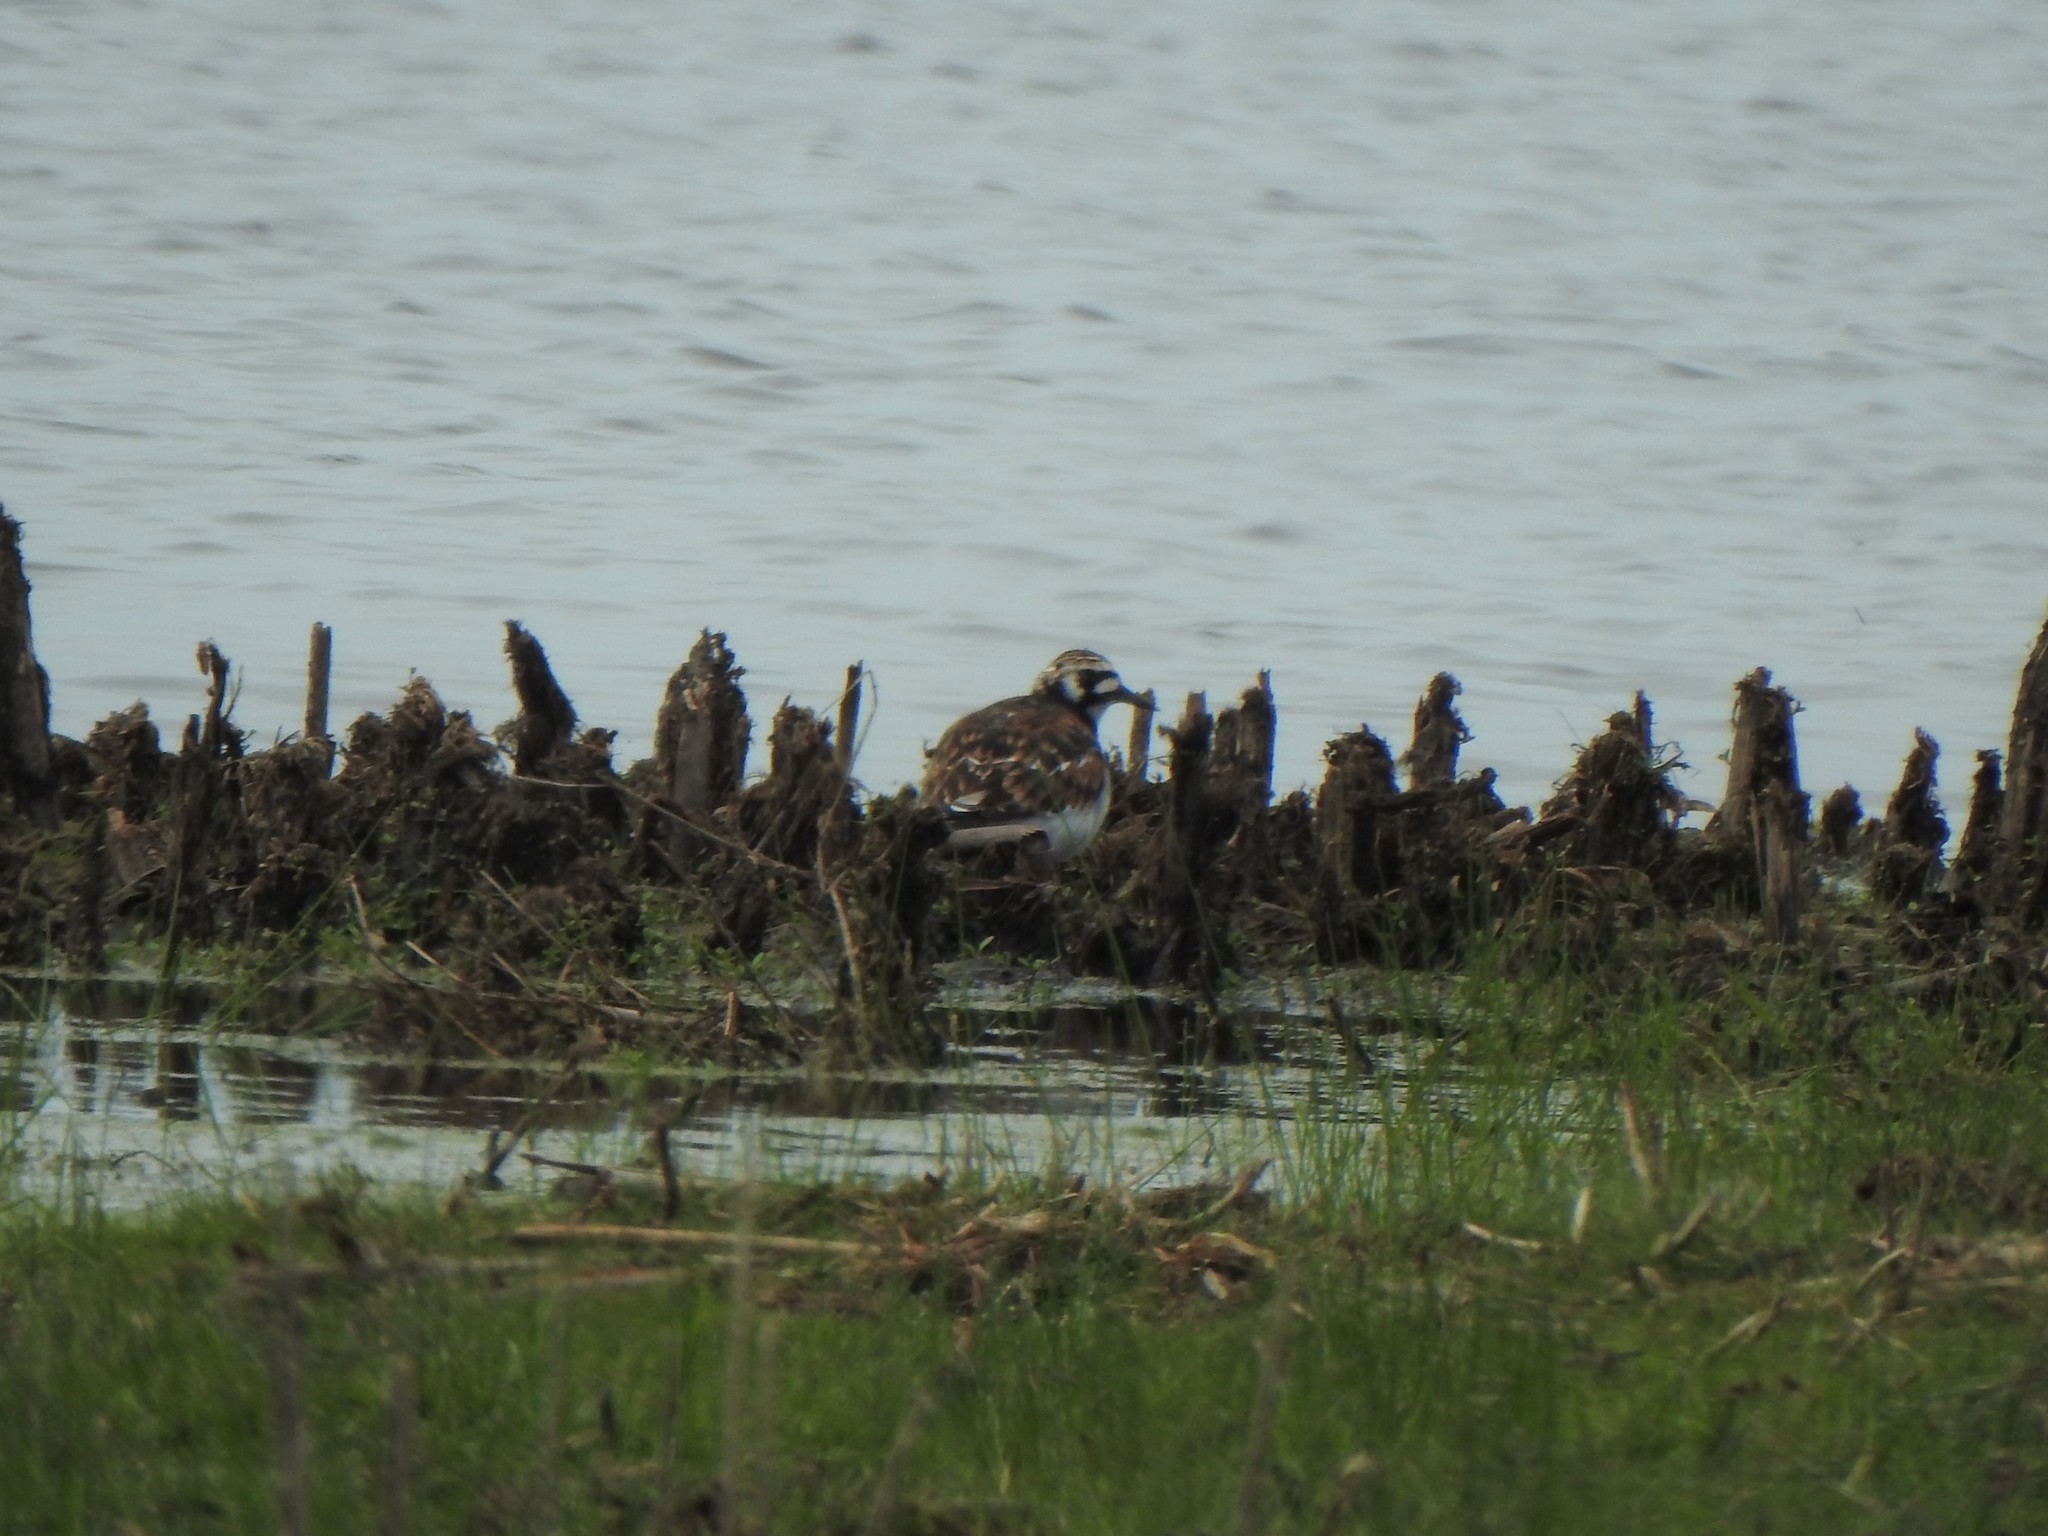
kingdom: Animalia
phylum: Chordata
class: Aves
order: Charadriiformes
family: Scolopacidae
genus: Arenaria
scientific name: Arenaria interpres
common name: Ruddy turnstone
